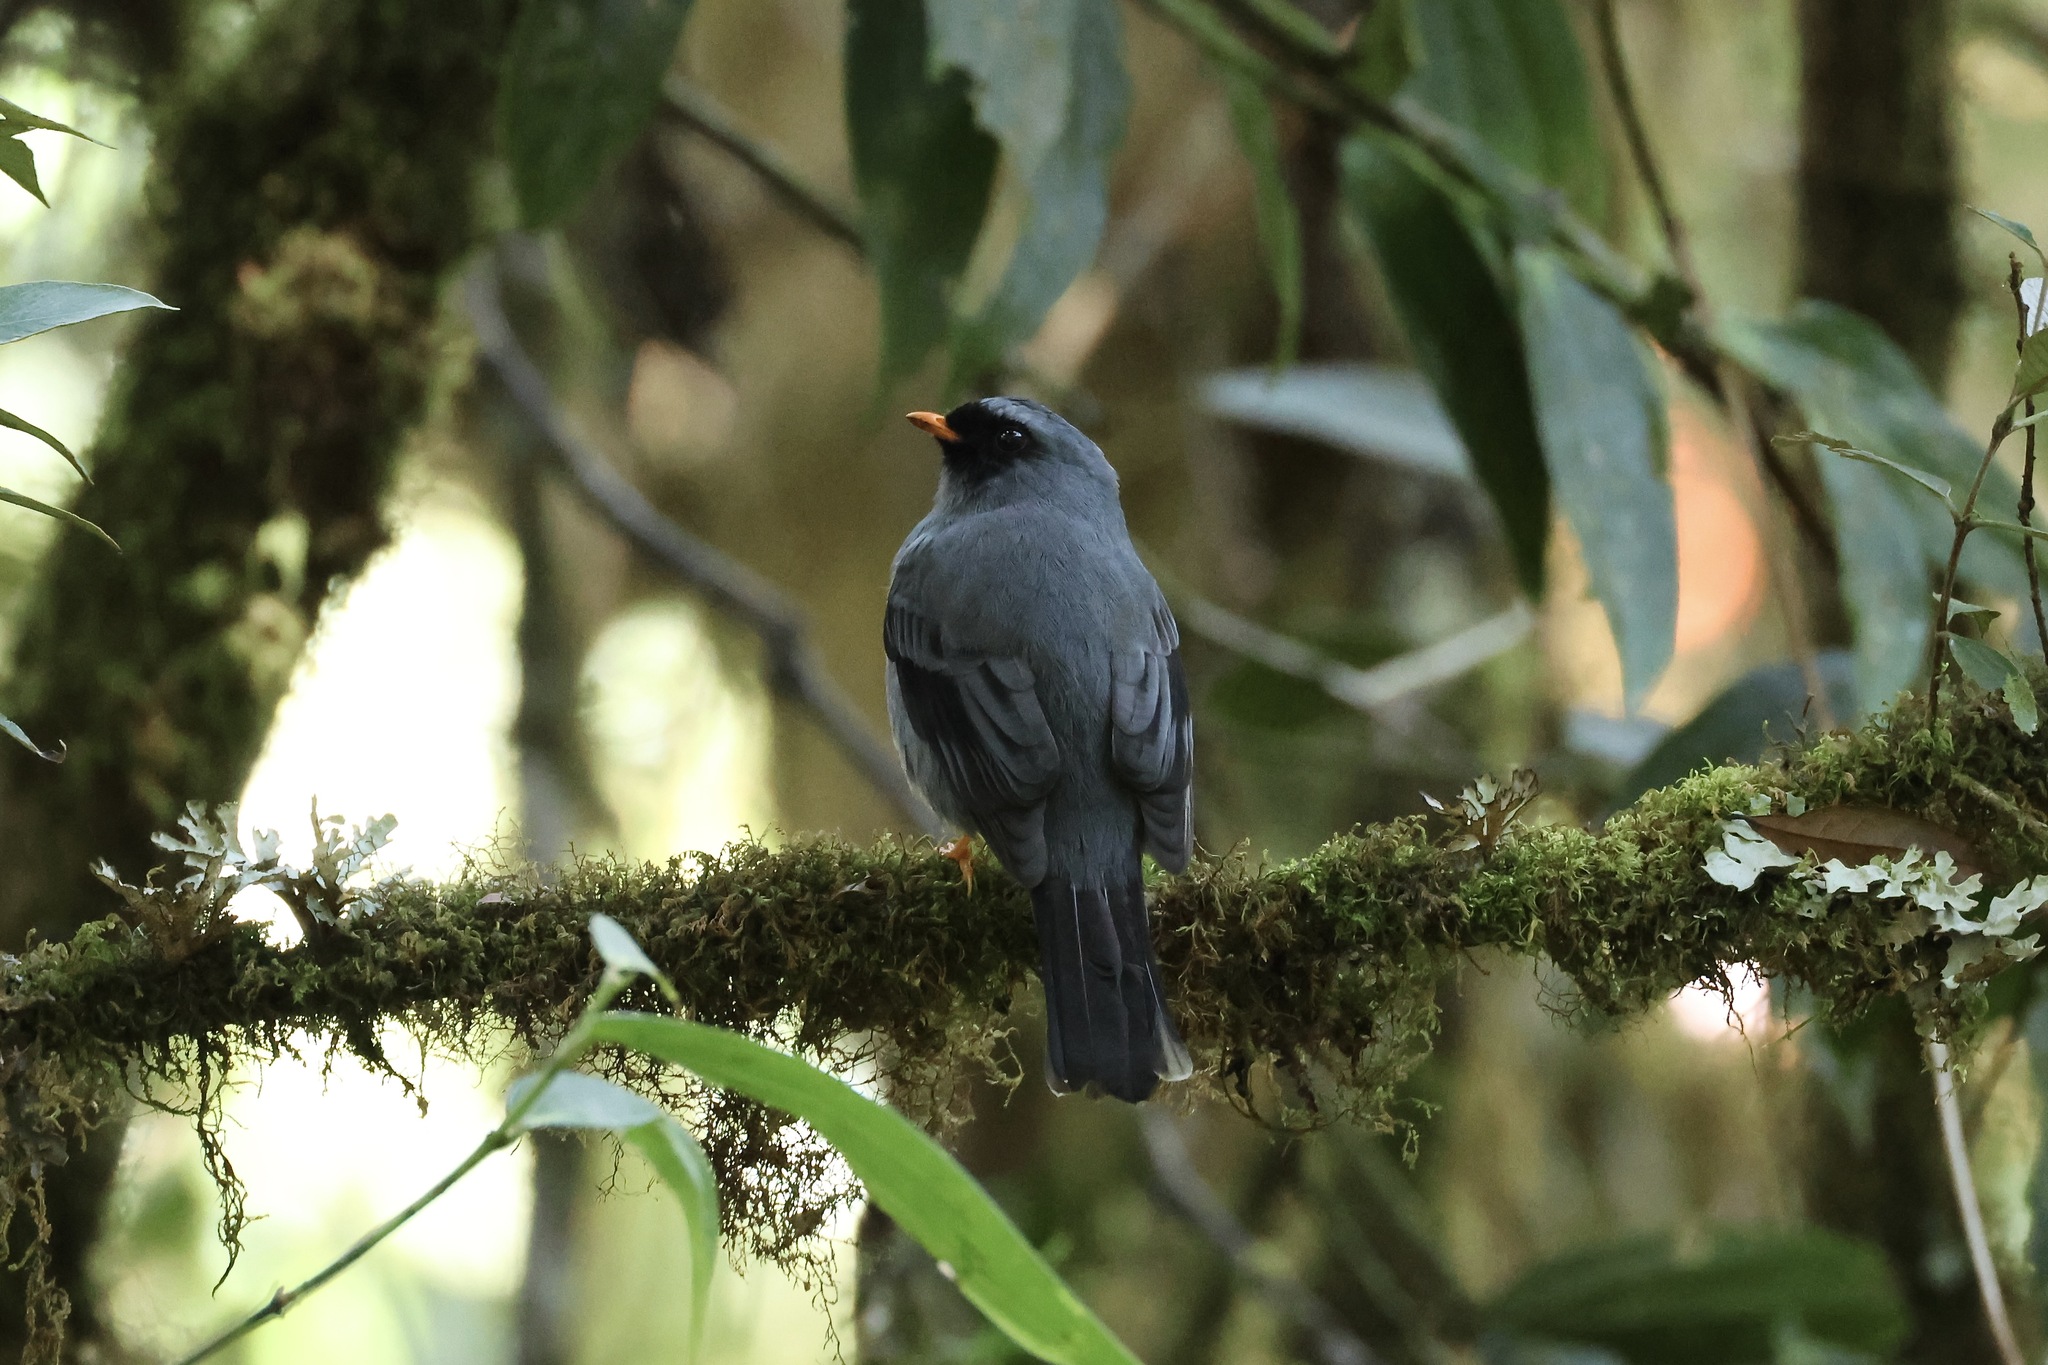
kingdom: Animalia
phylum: Chordata
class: Aves
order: Passeriformes
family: Turdidae
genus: Myadestes
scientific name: Myadestes melanops
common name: Black-faced solitaire
